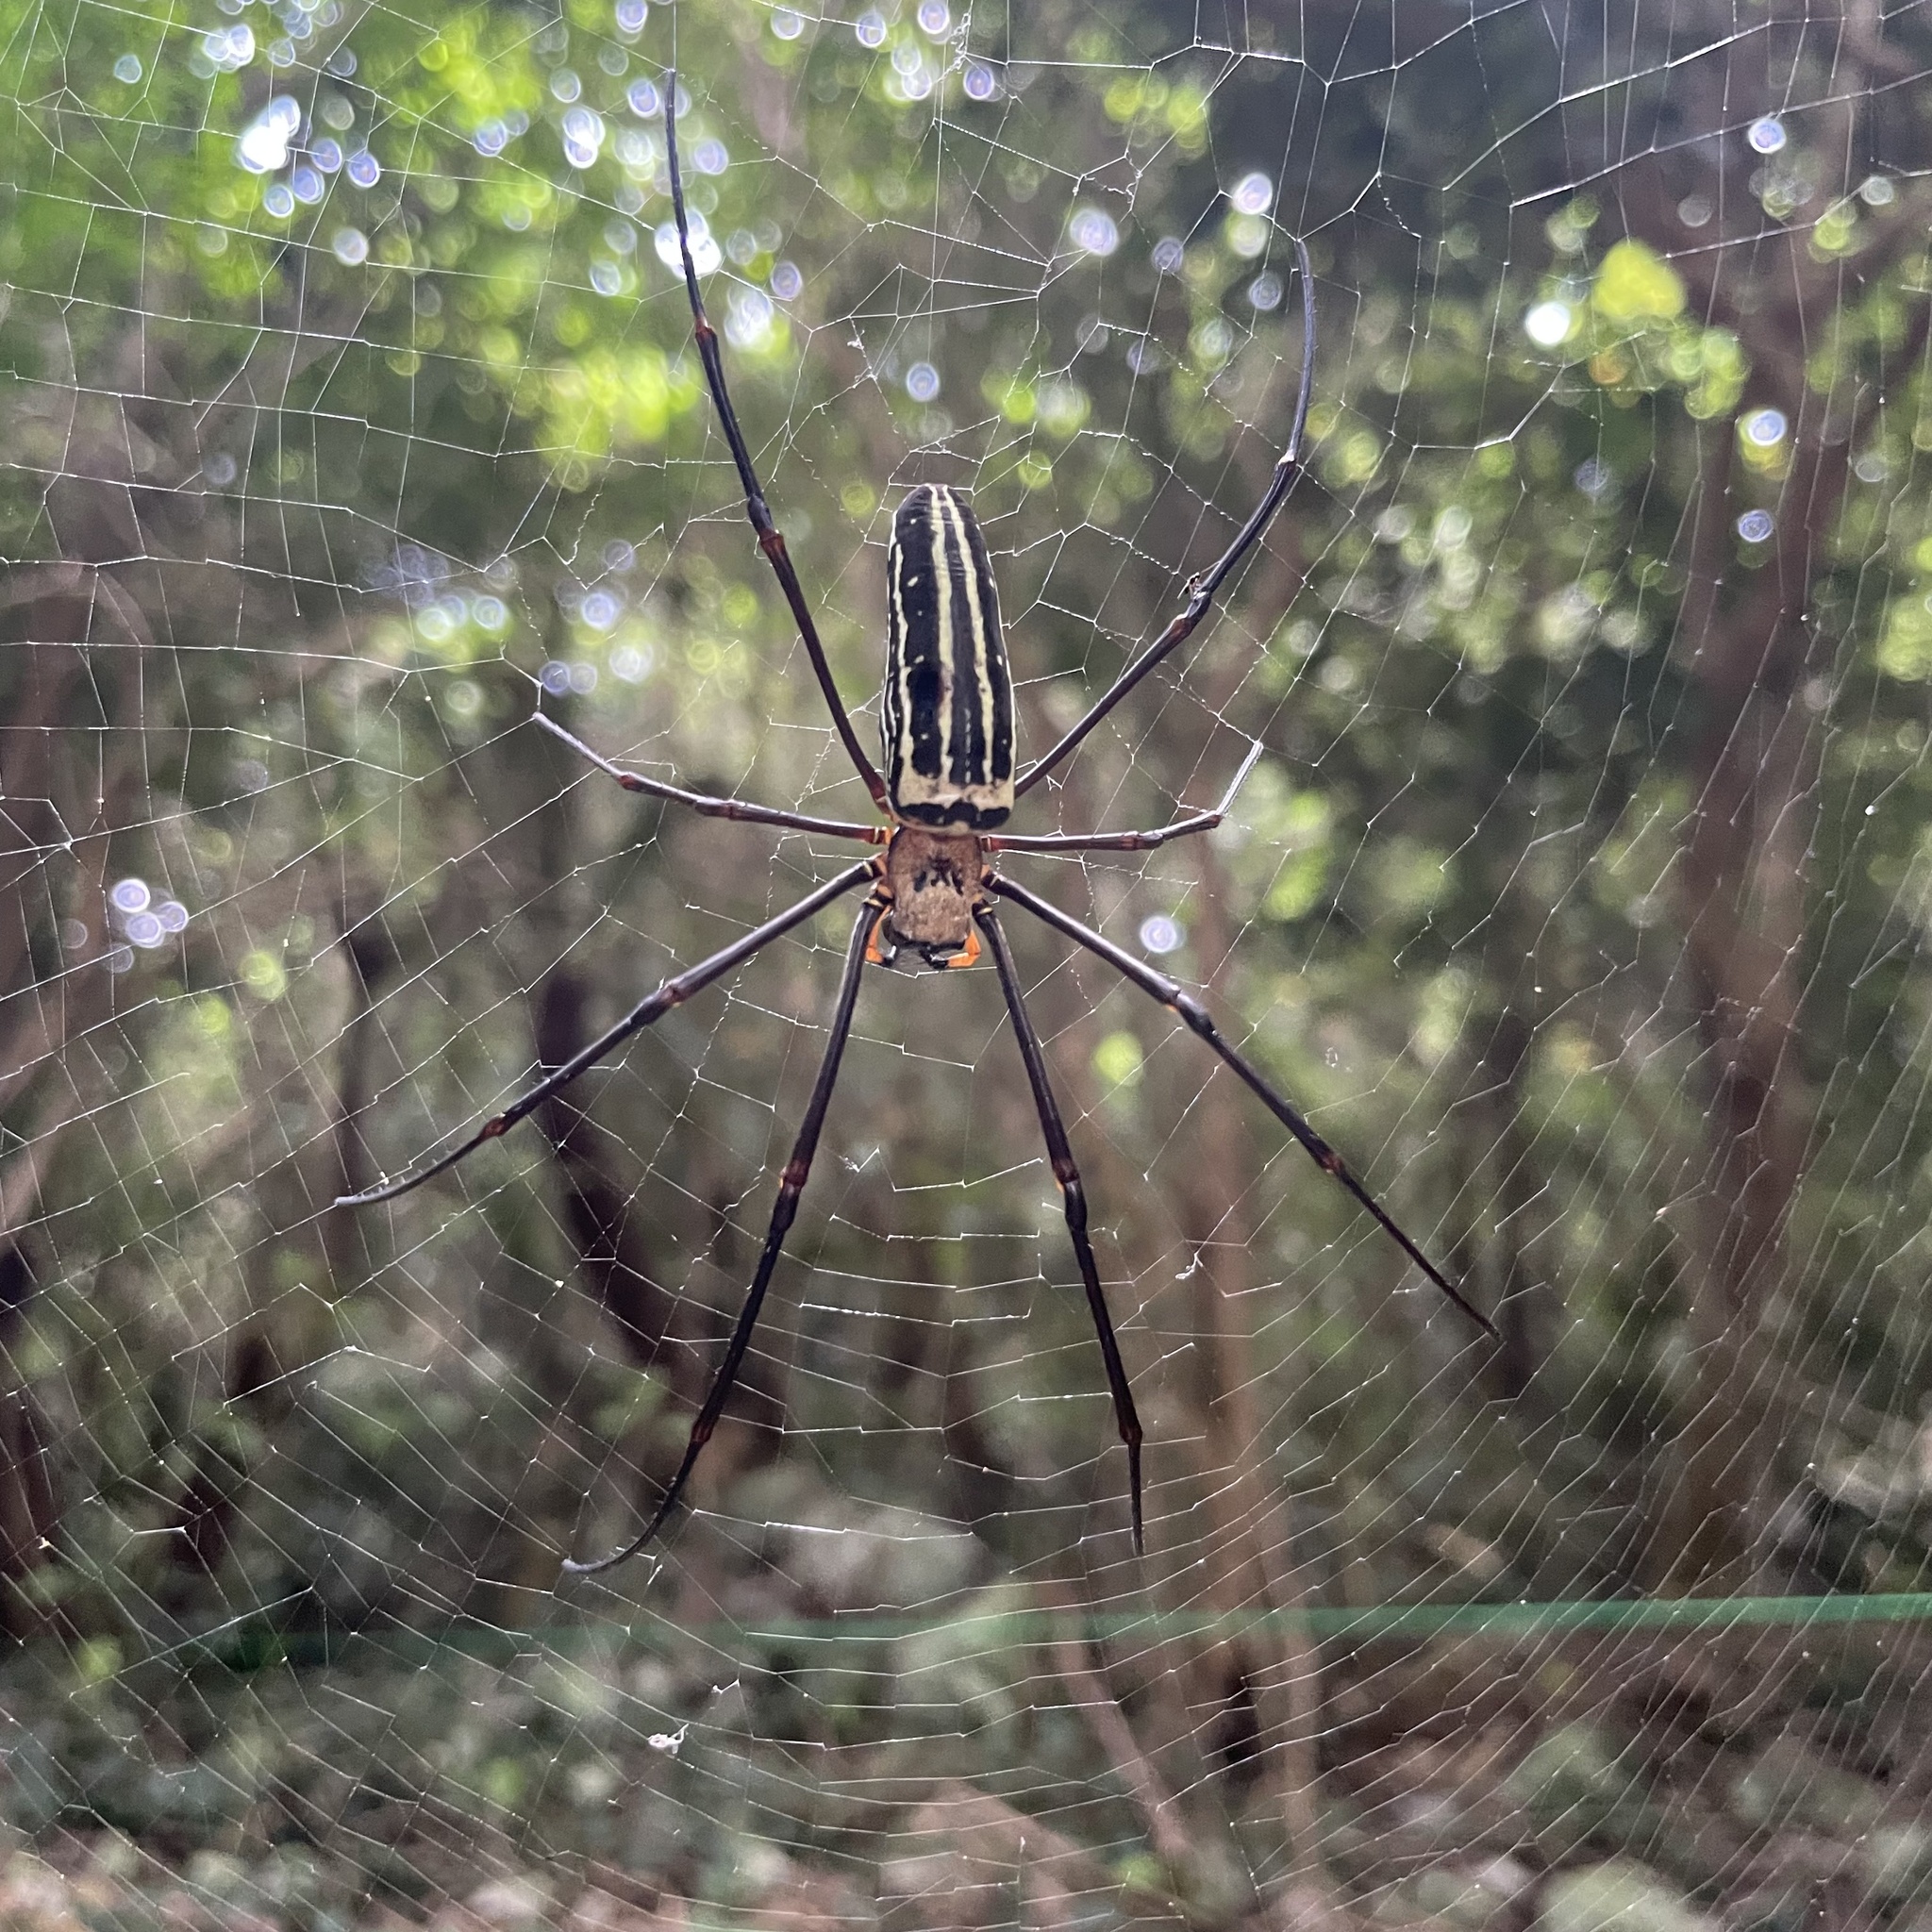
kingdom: Animalia
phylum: Arthropoda
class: Arachnida
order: Araneae
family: Araneidae
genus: Nephila
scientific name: Nephila pilipes
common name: Giant golden orb weaver
